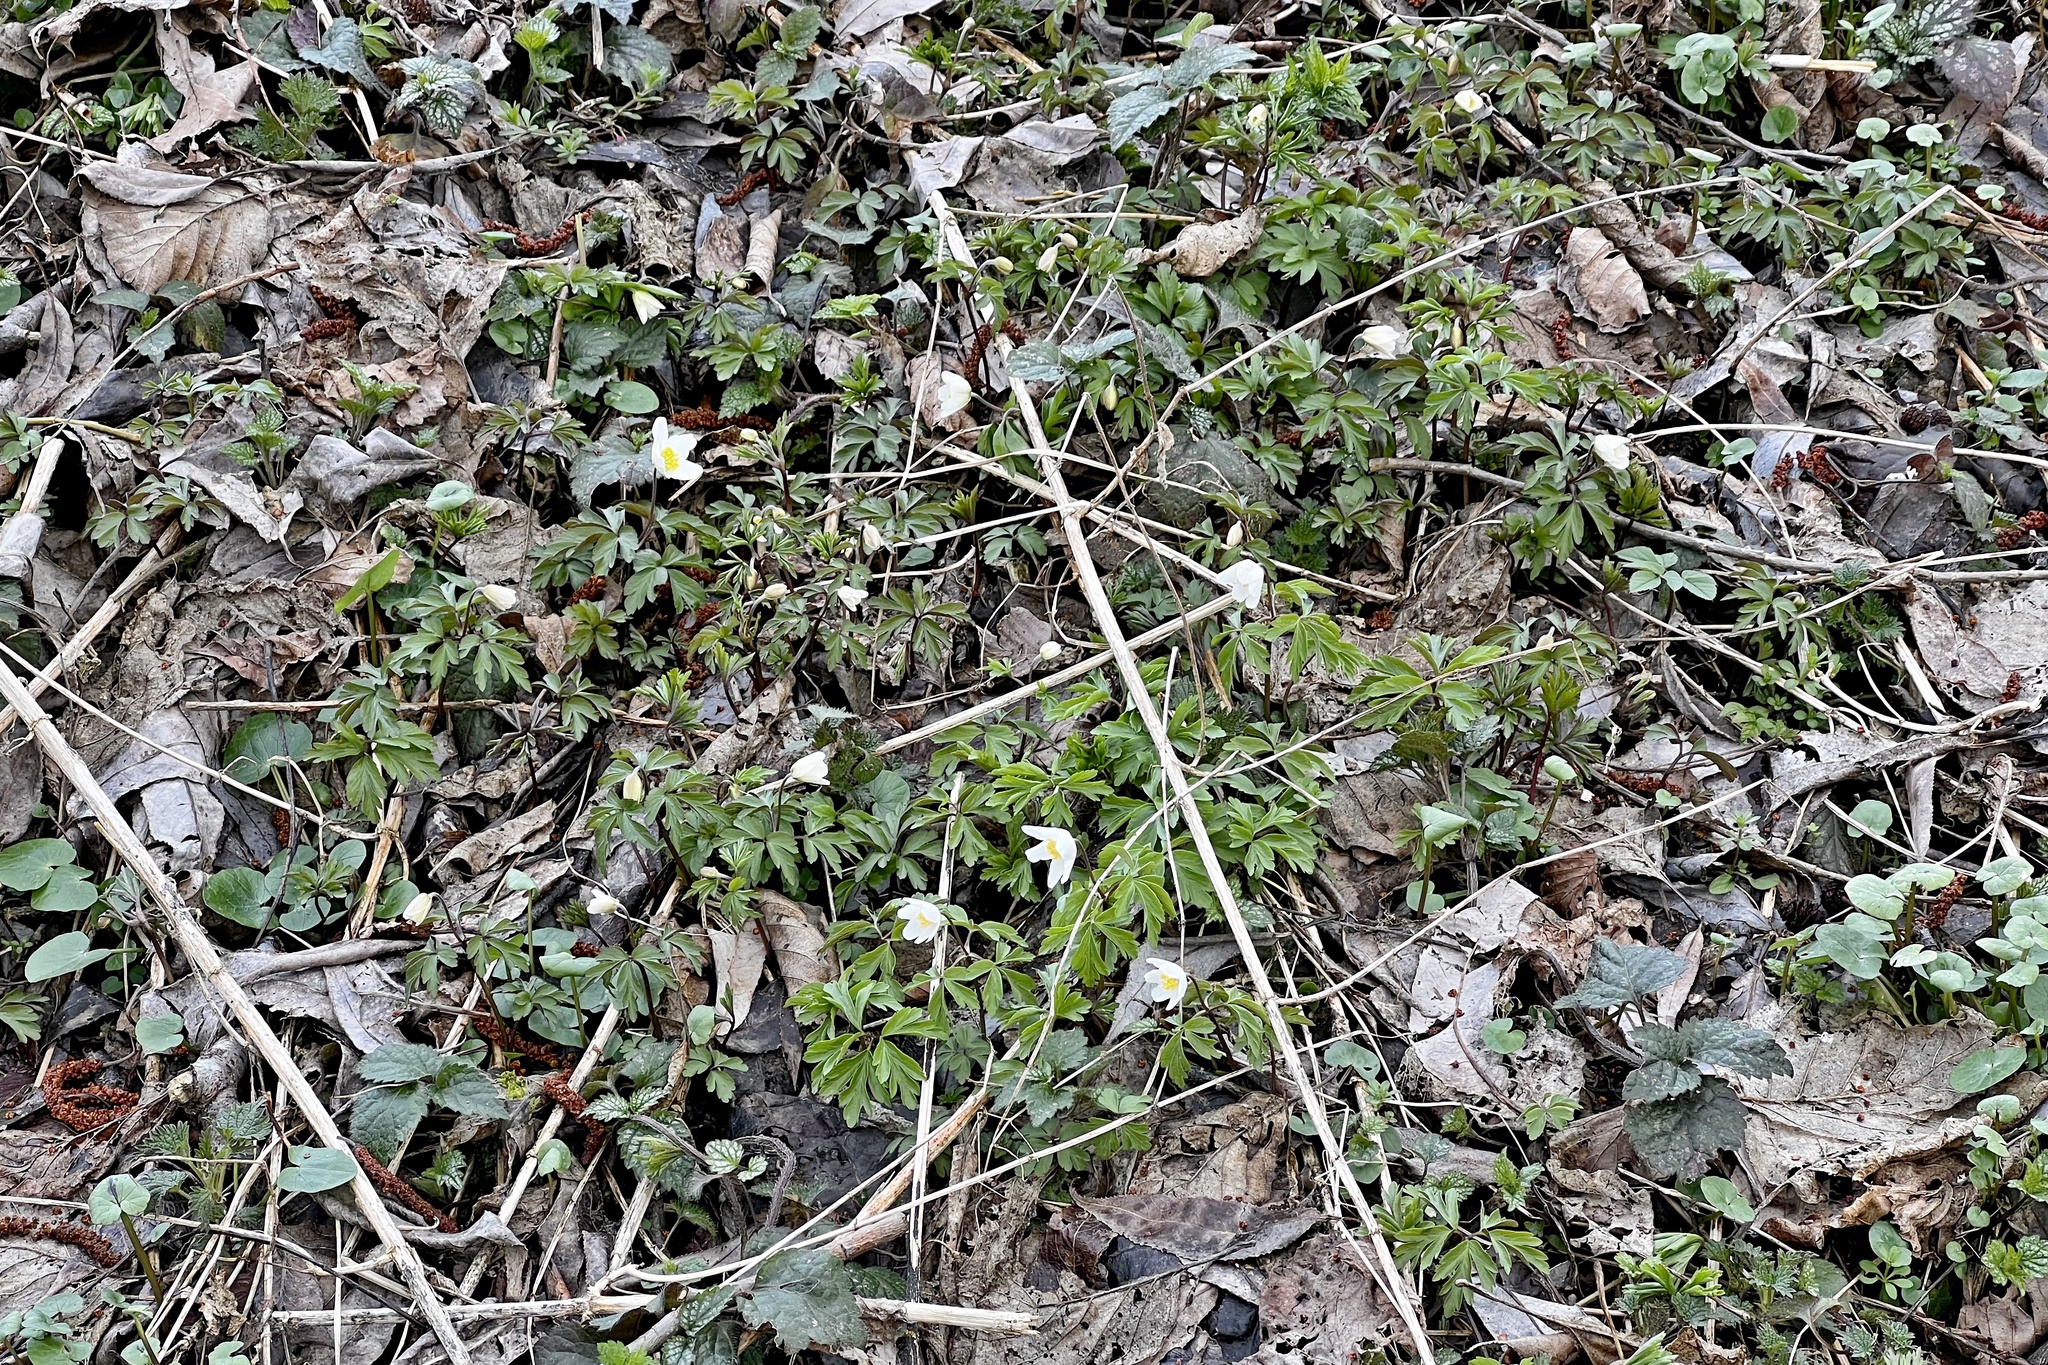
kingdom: Plantae
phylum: Tracheophyta
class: Magnoliopsida
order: Ranunculales
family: Ranunculaceae
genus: Anemone
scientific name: Anemone nemorosa
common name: Wood anemone
